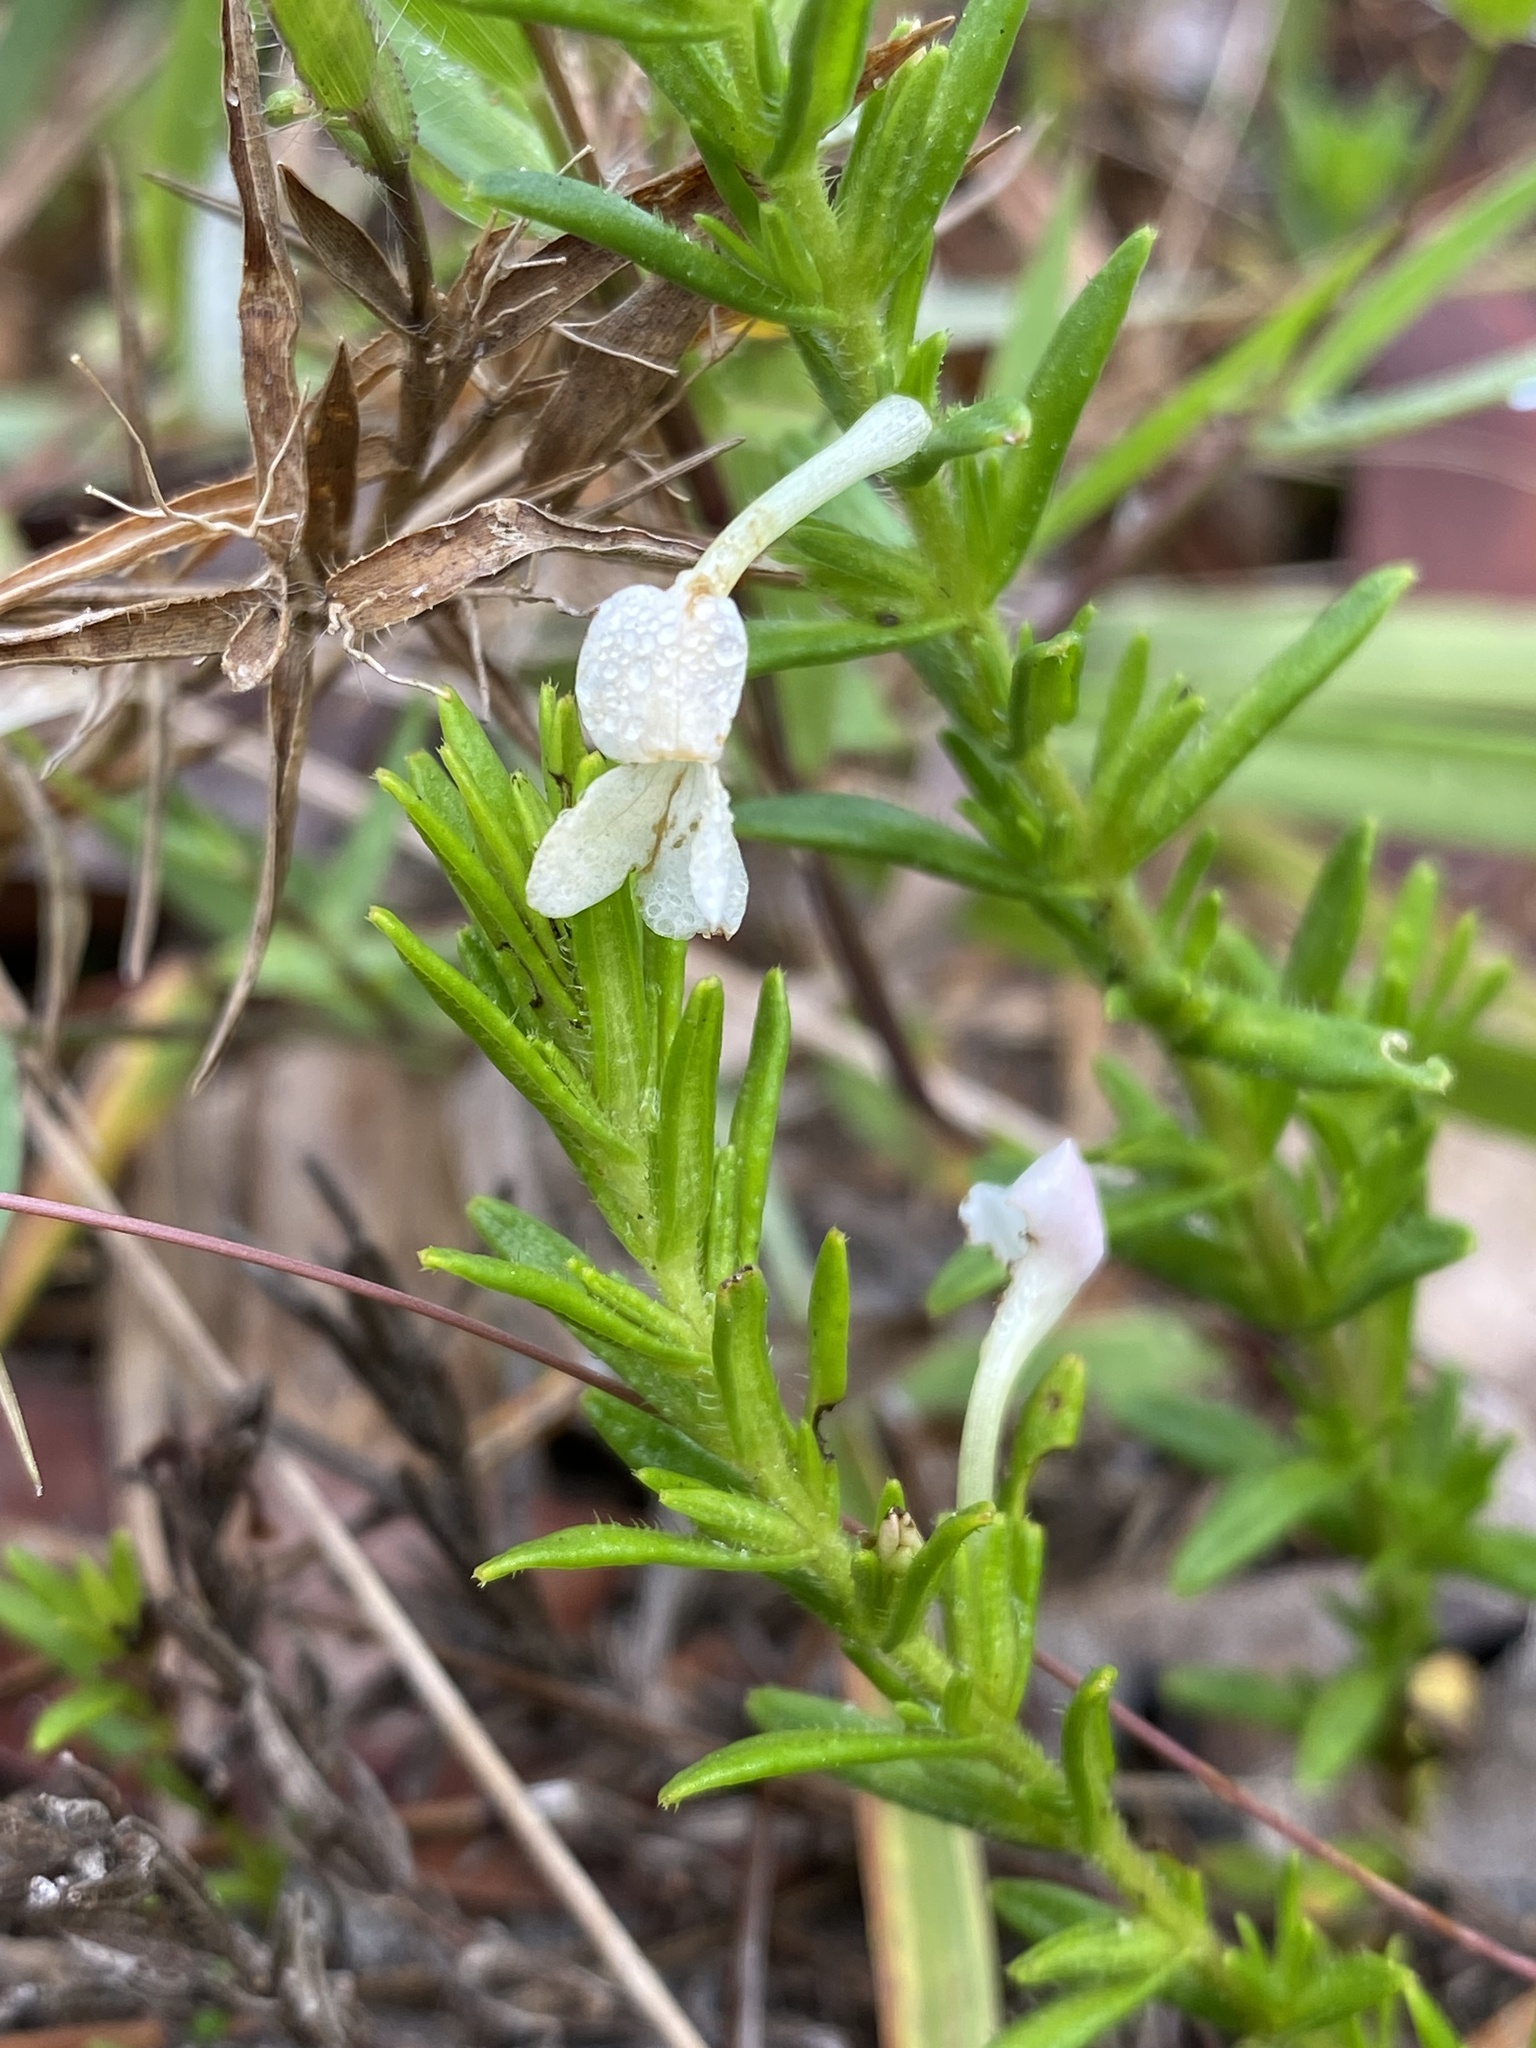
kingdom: Plantae
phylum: Tracheophyta
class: Magnoliopsida
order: Lamiales
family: Plantaginaceae
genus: Gratiola
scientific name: Gratiola hispida
